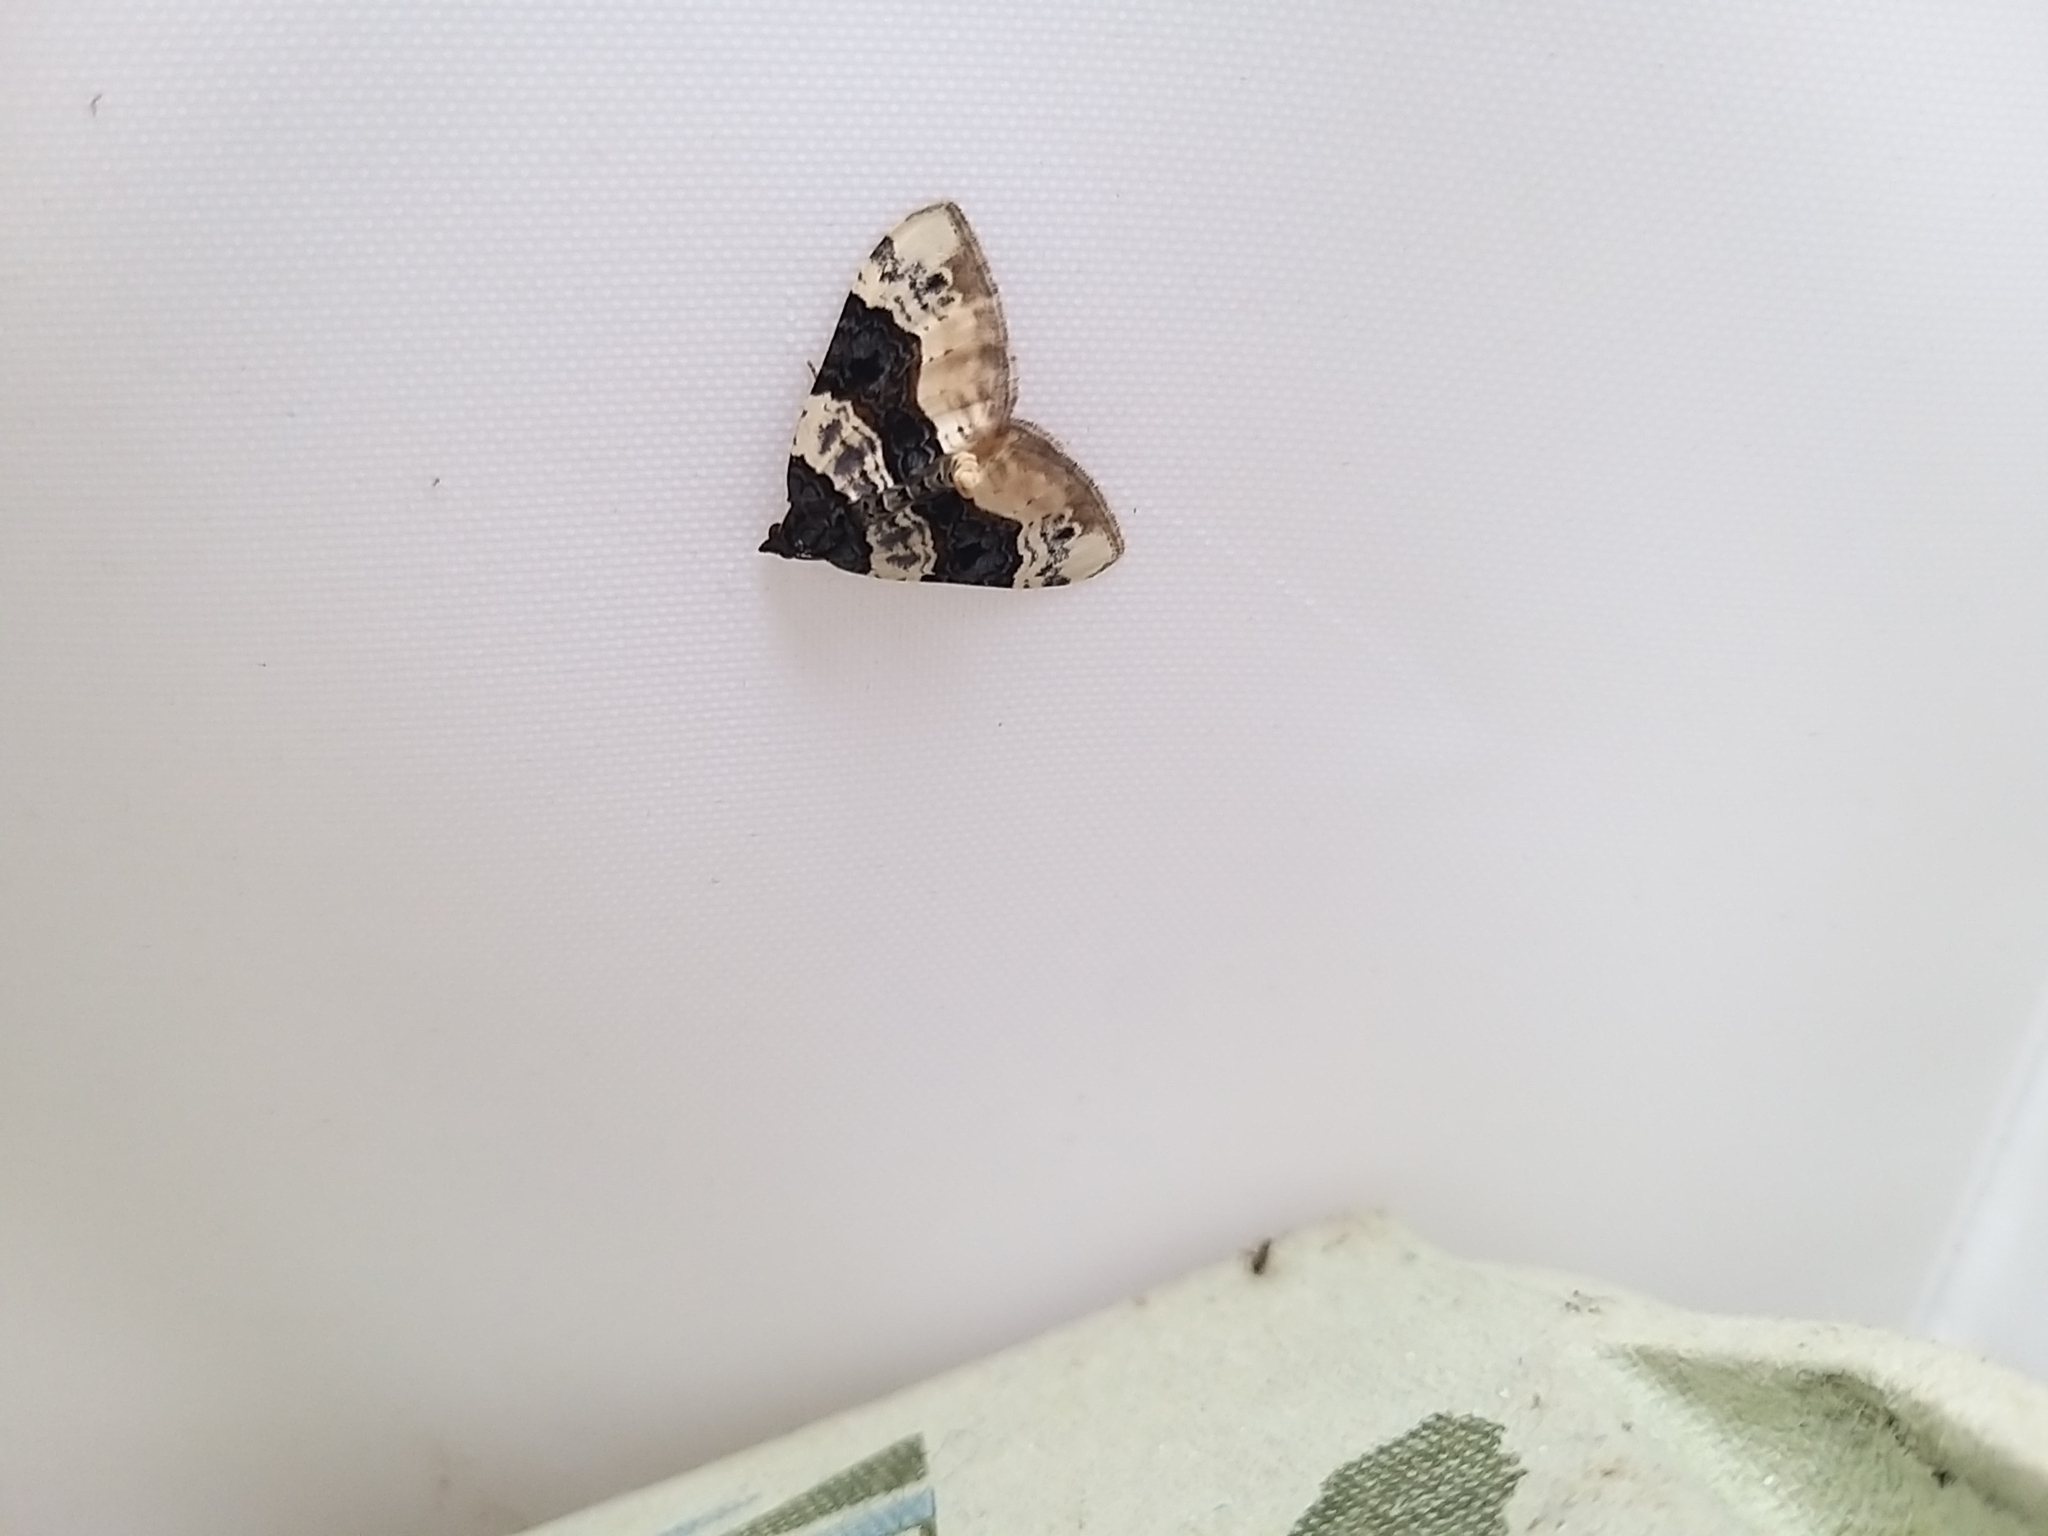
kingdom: Animalia
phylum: Arthropoda
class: Insecta
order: Lepidoptera
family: Geometridae
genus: Cosmorhoe
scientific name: Cosmorhoe ocellata
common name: Purple bar
